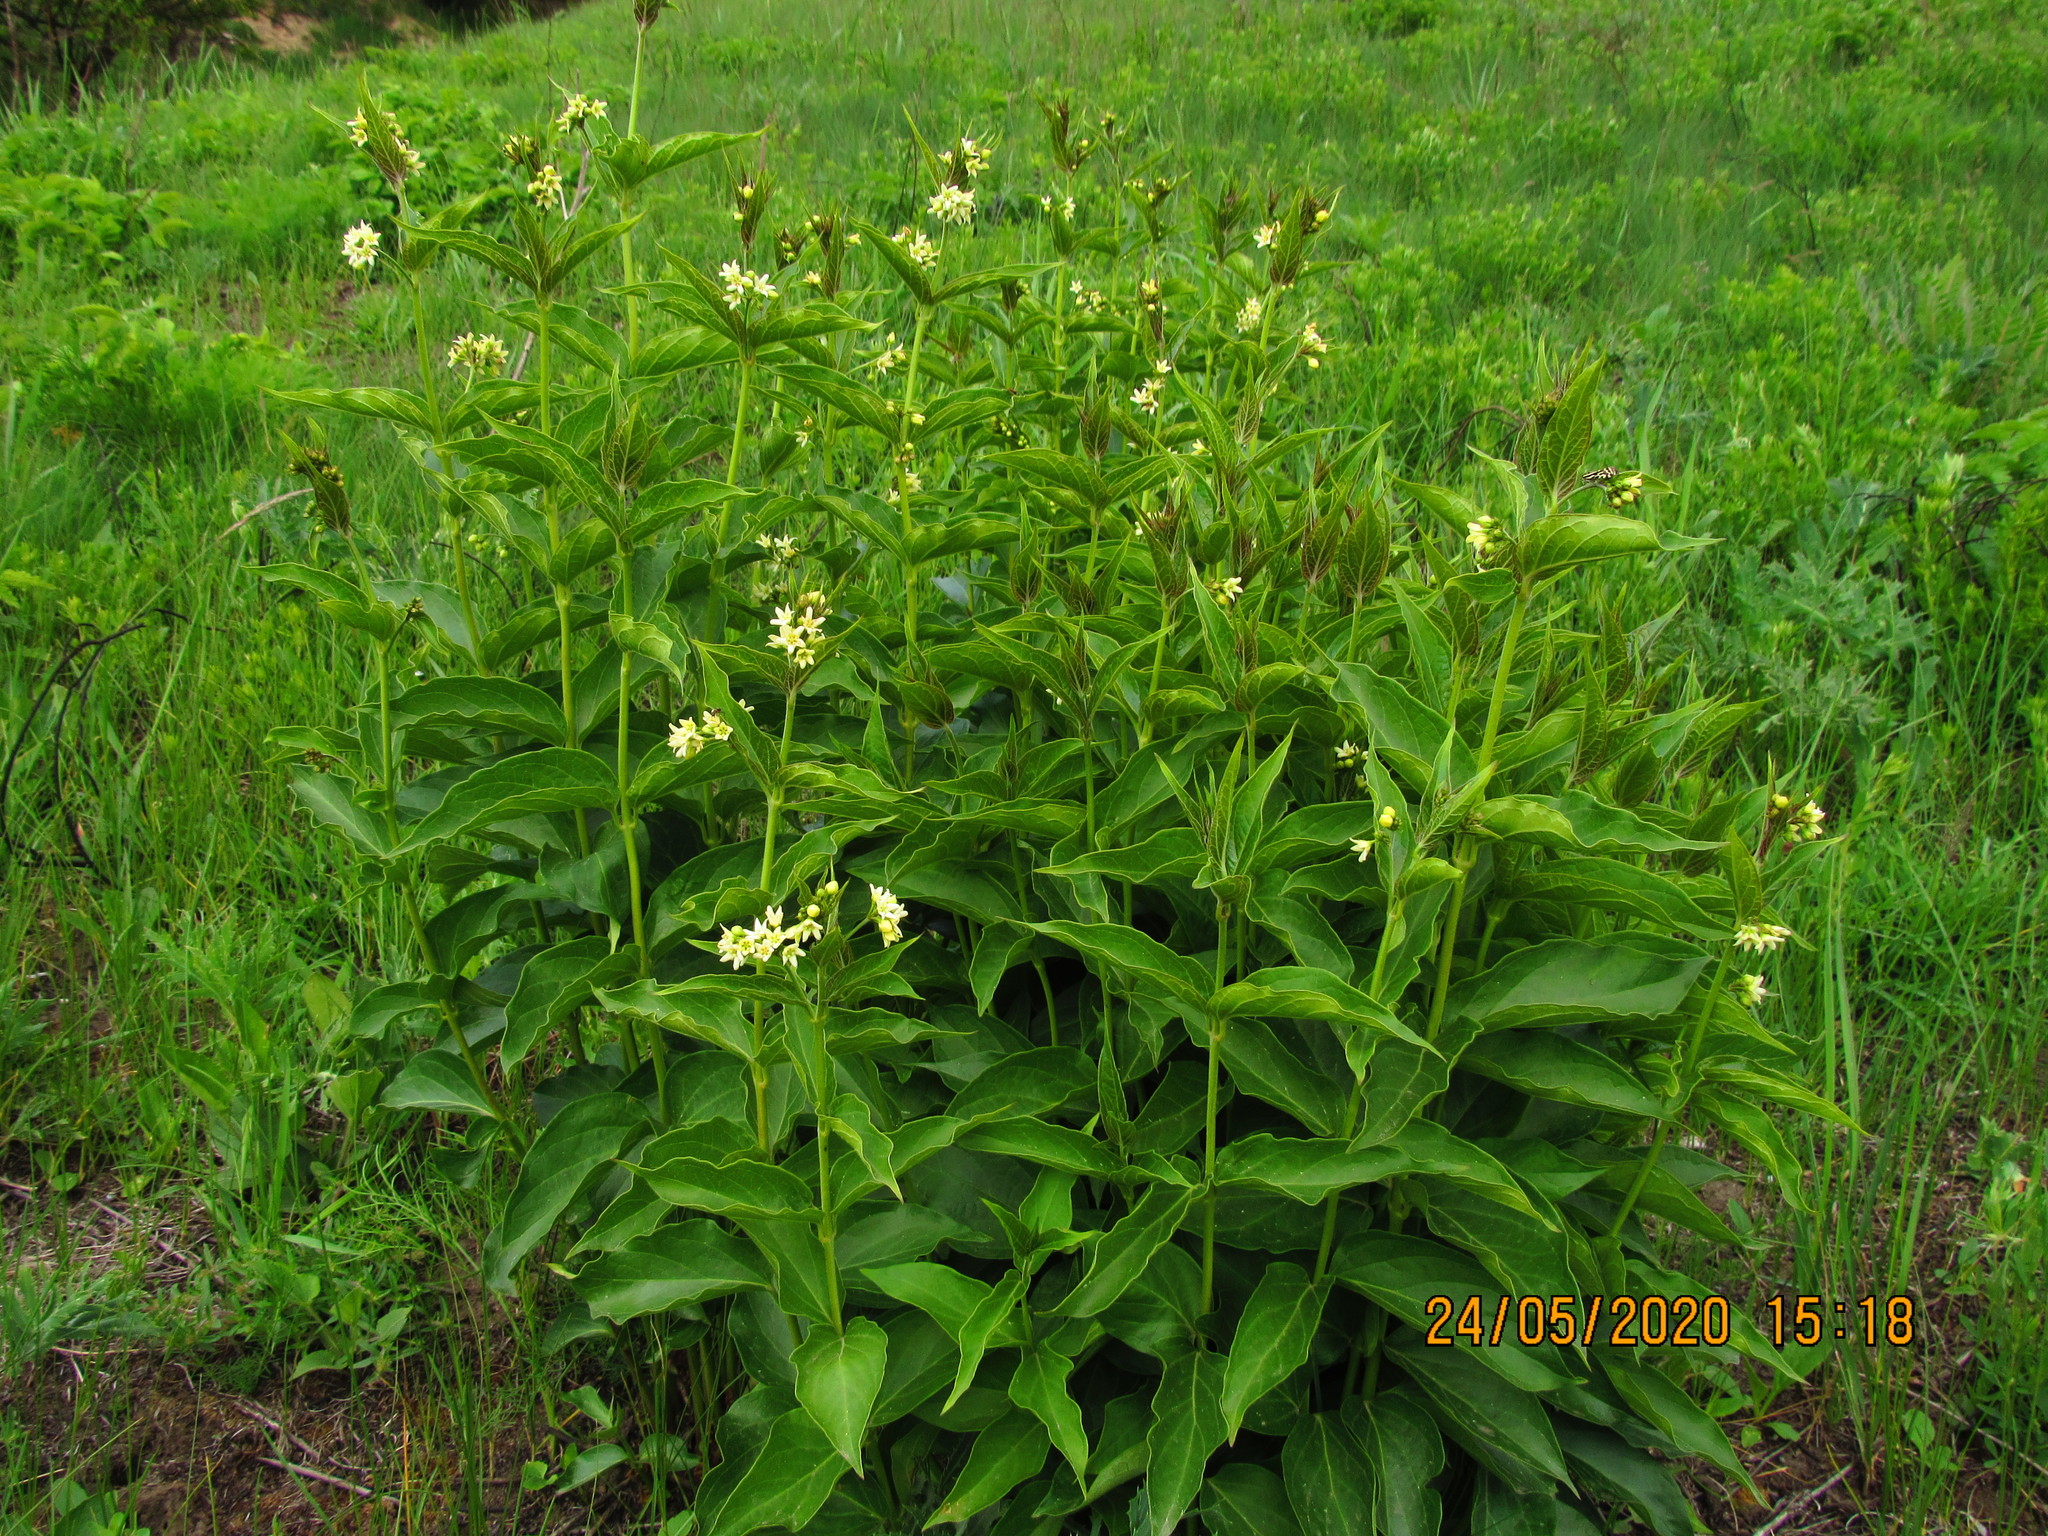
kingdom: Plantae
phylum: Tracheophyta
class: Magnoliopsida
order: Gentianales
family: Apocynaceae
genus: Vincetoxicum
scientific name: Vincetoxicum hirundinaria
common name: White swallowwort
